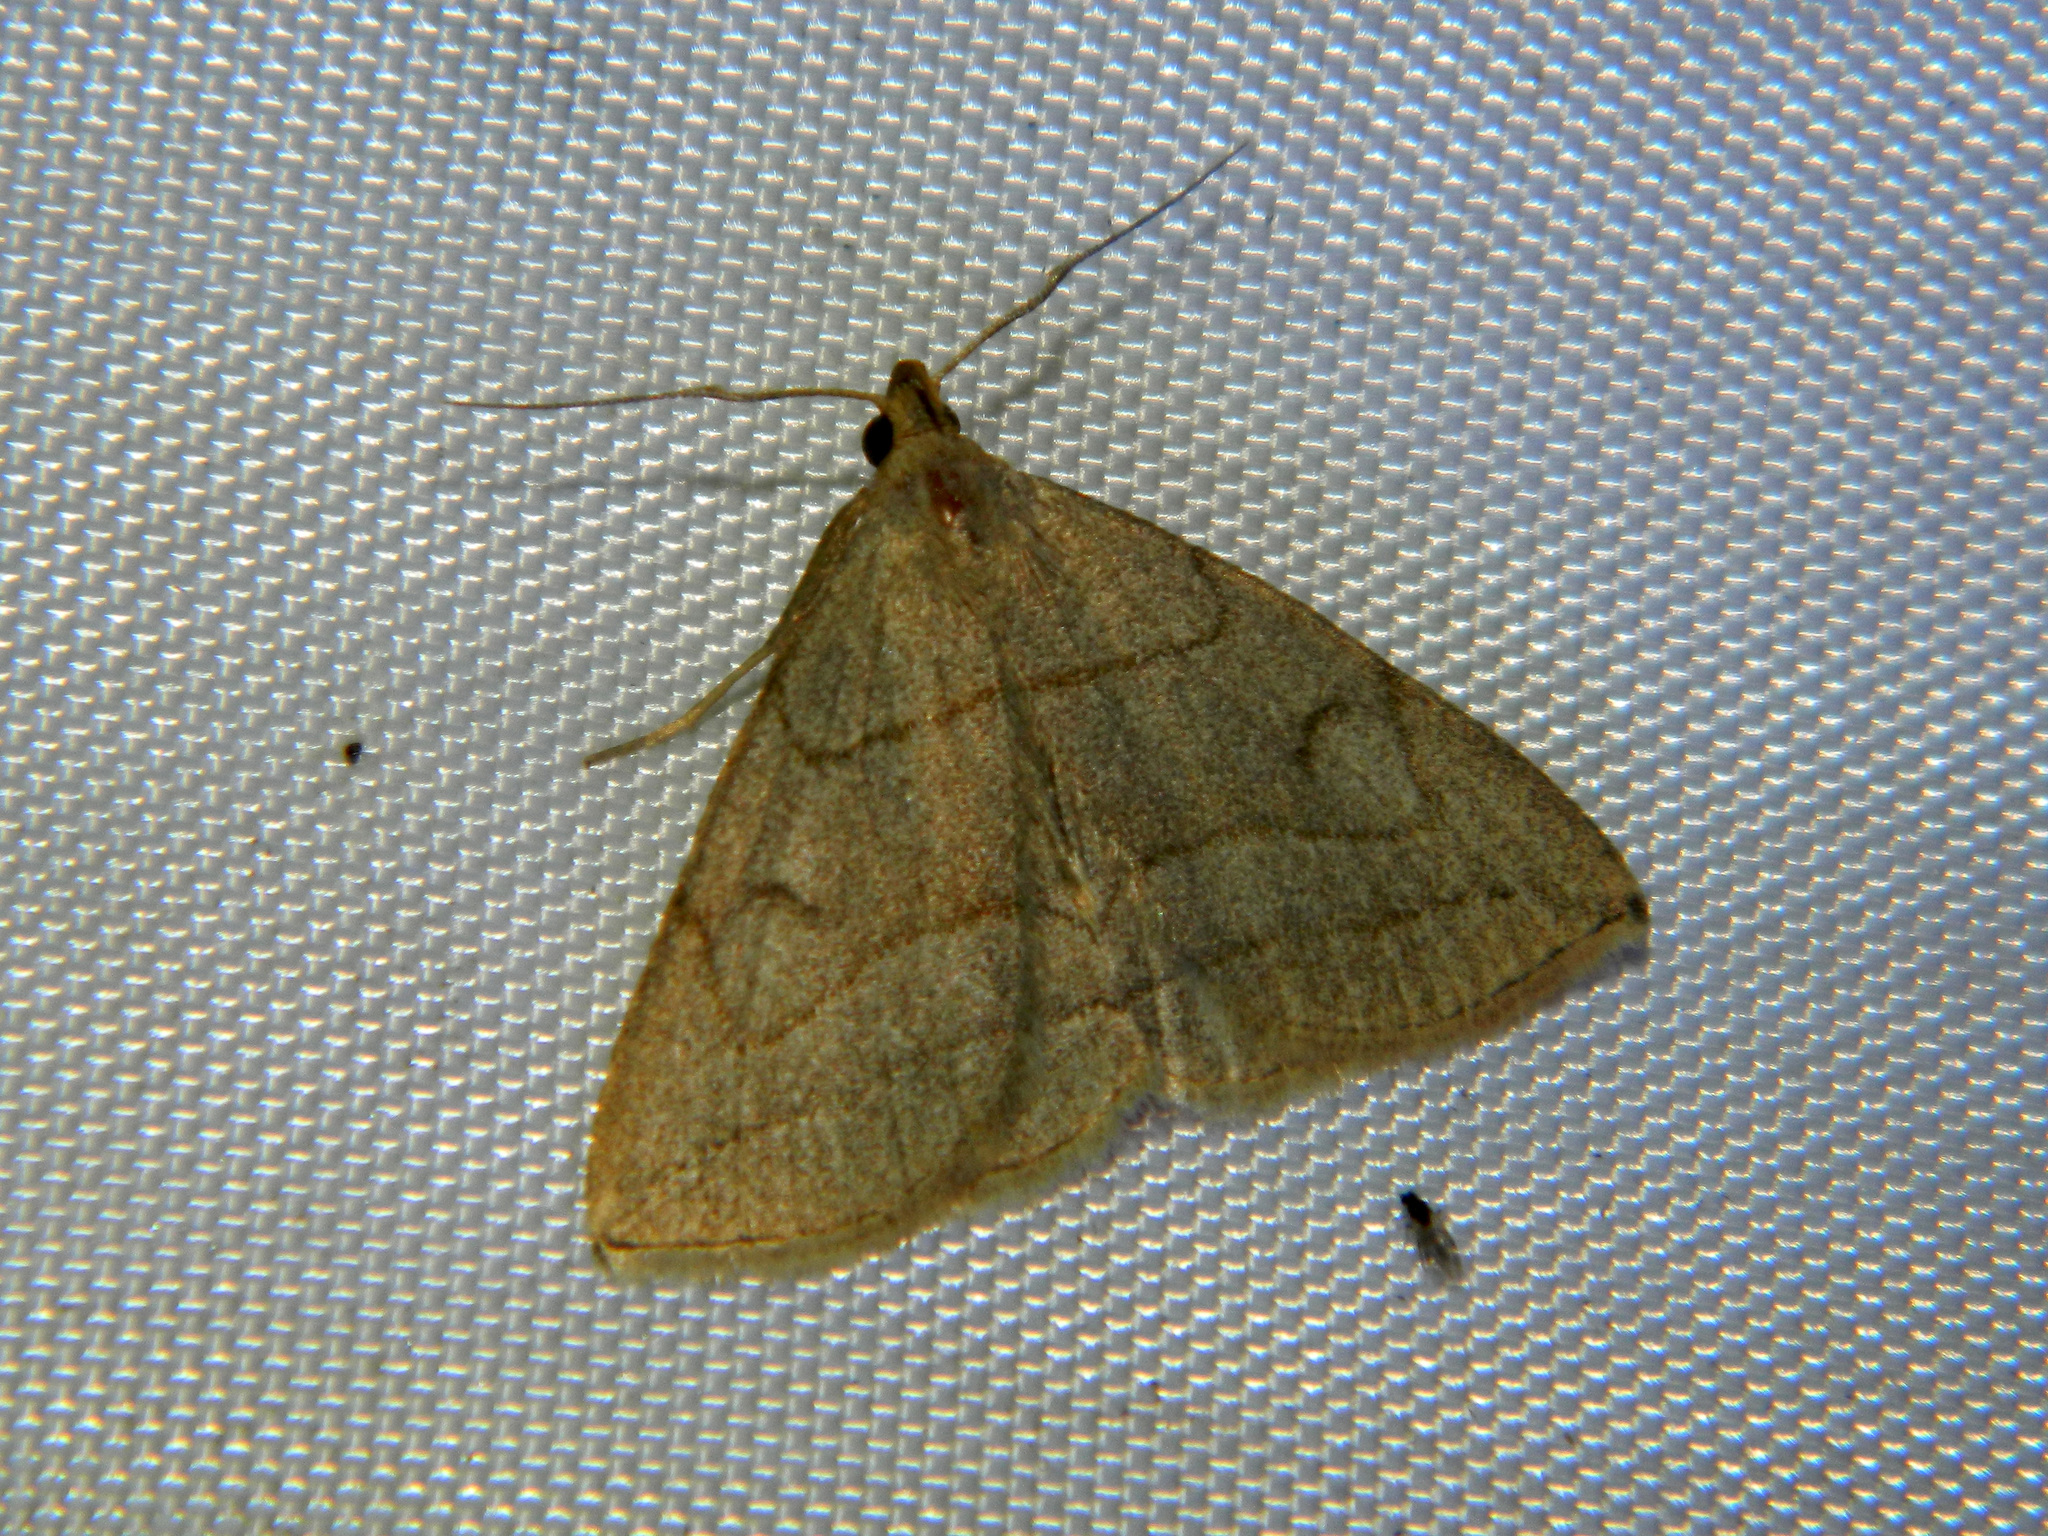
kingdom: Animalia
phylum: Arthropoda
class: Insecta
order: Lepidoptera
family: Erebidae
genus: Zanclognatha
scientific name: Zanclognatha pedipilalis
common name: Grayish fan-foot
